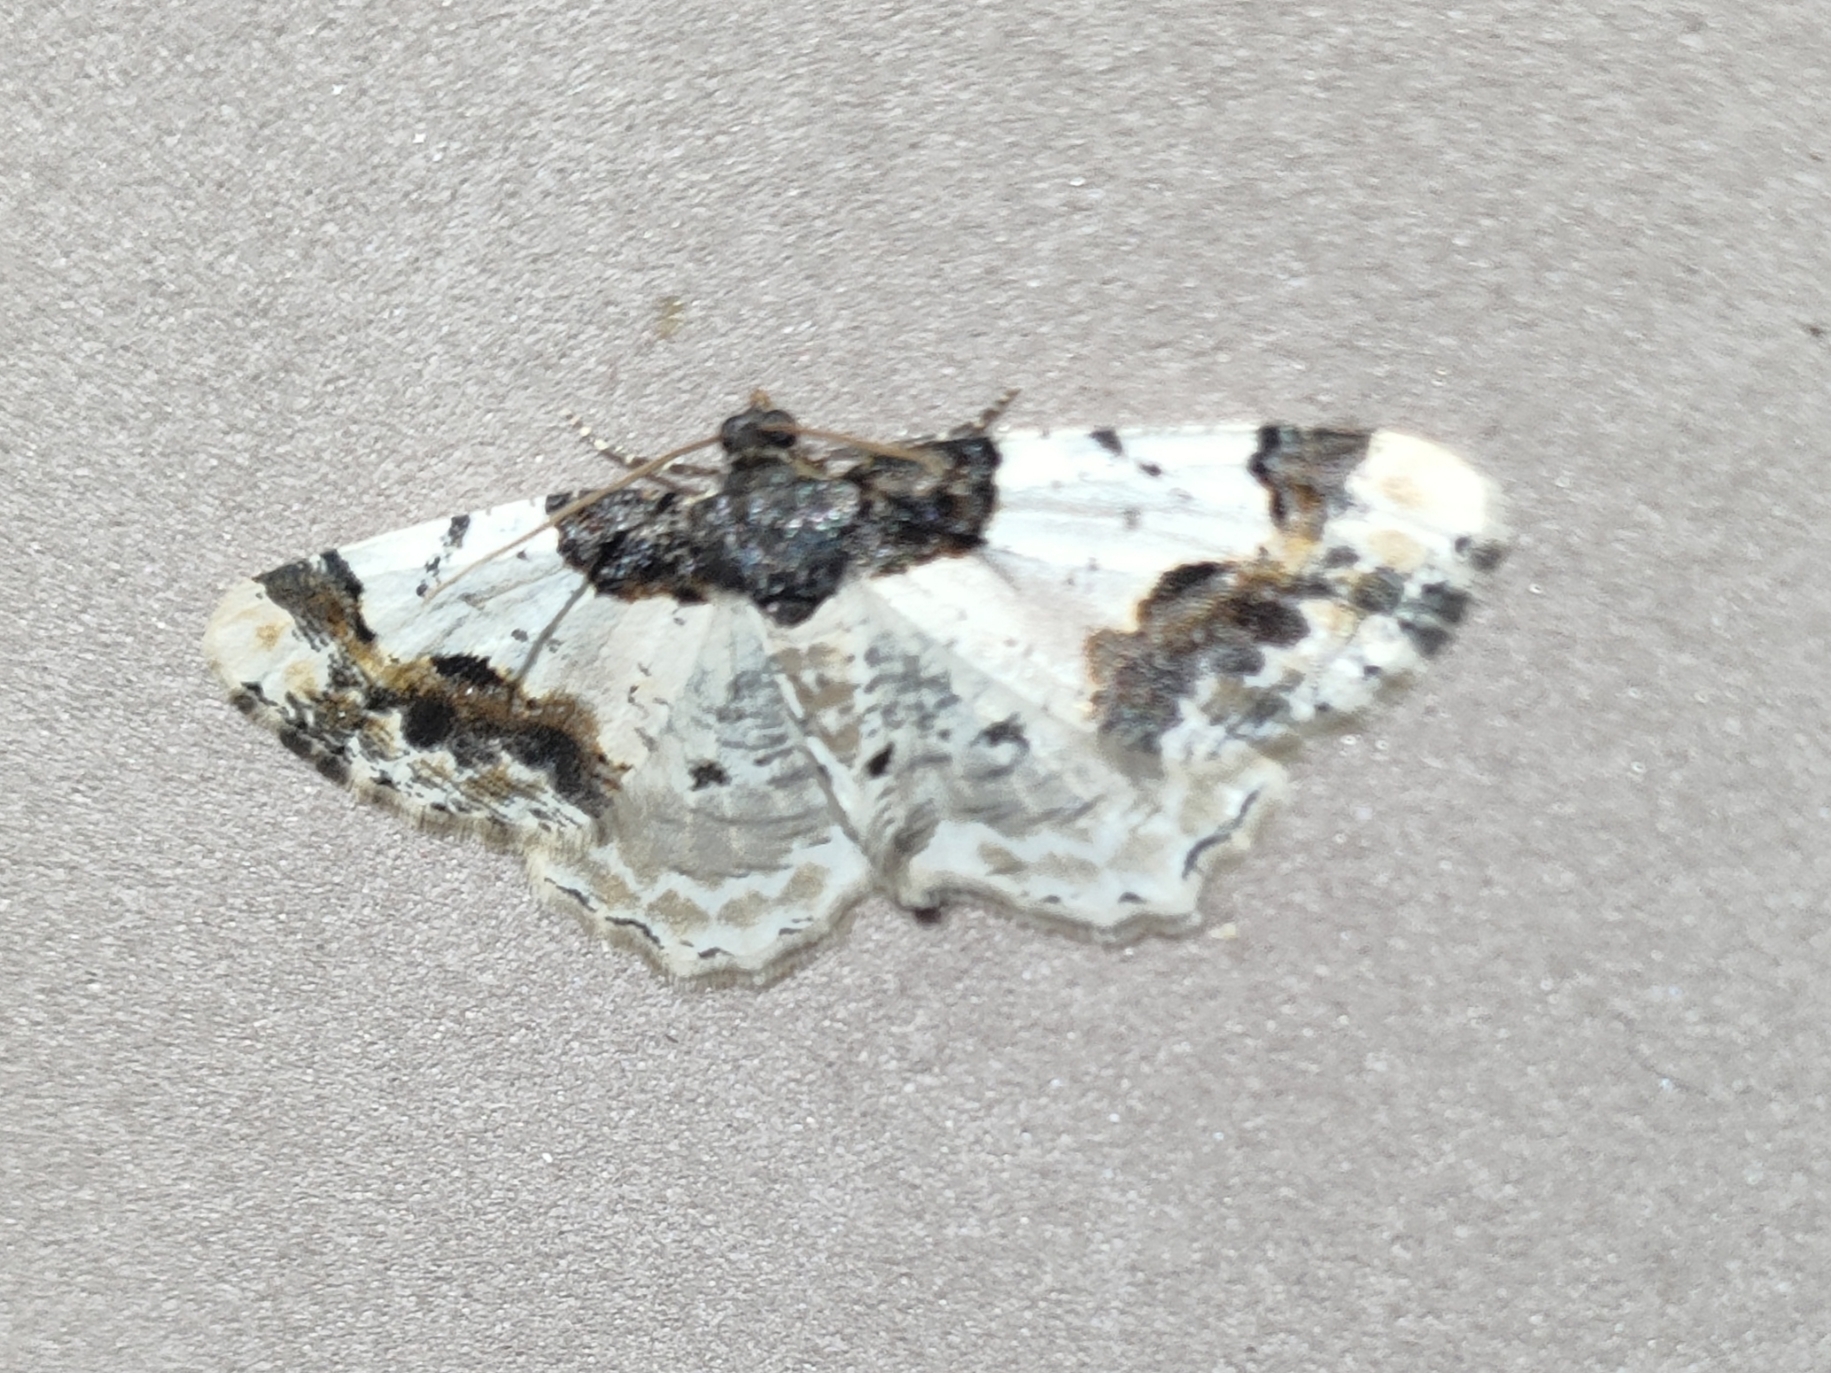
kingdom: Animalia
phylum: Arthropoda
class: Insecta
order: Lepidoptera
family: Geometridae
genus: Ligdia
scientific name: Ligdia adustata
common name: Scorched carpet
